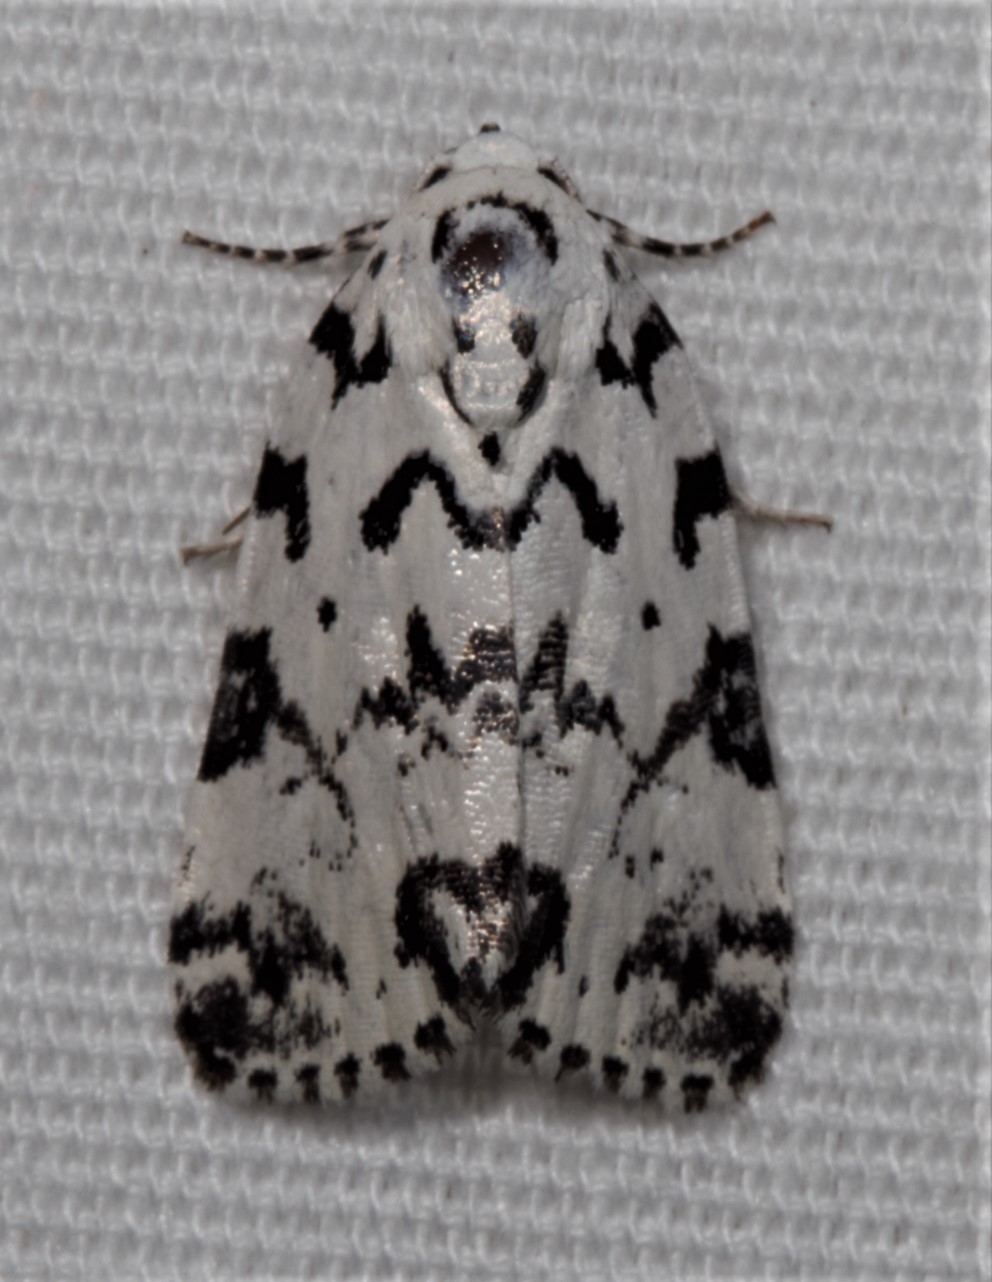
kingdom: Animalia
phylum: Arthropoda
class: Insecta
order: Lepidoptera
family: Noctuidae
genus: Polygrammate
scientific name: Polygrammate hebraeicum
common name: Hebrew moth
